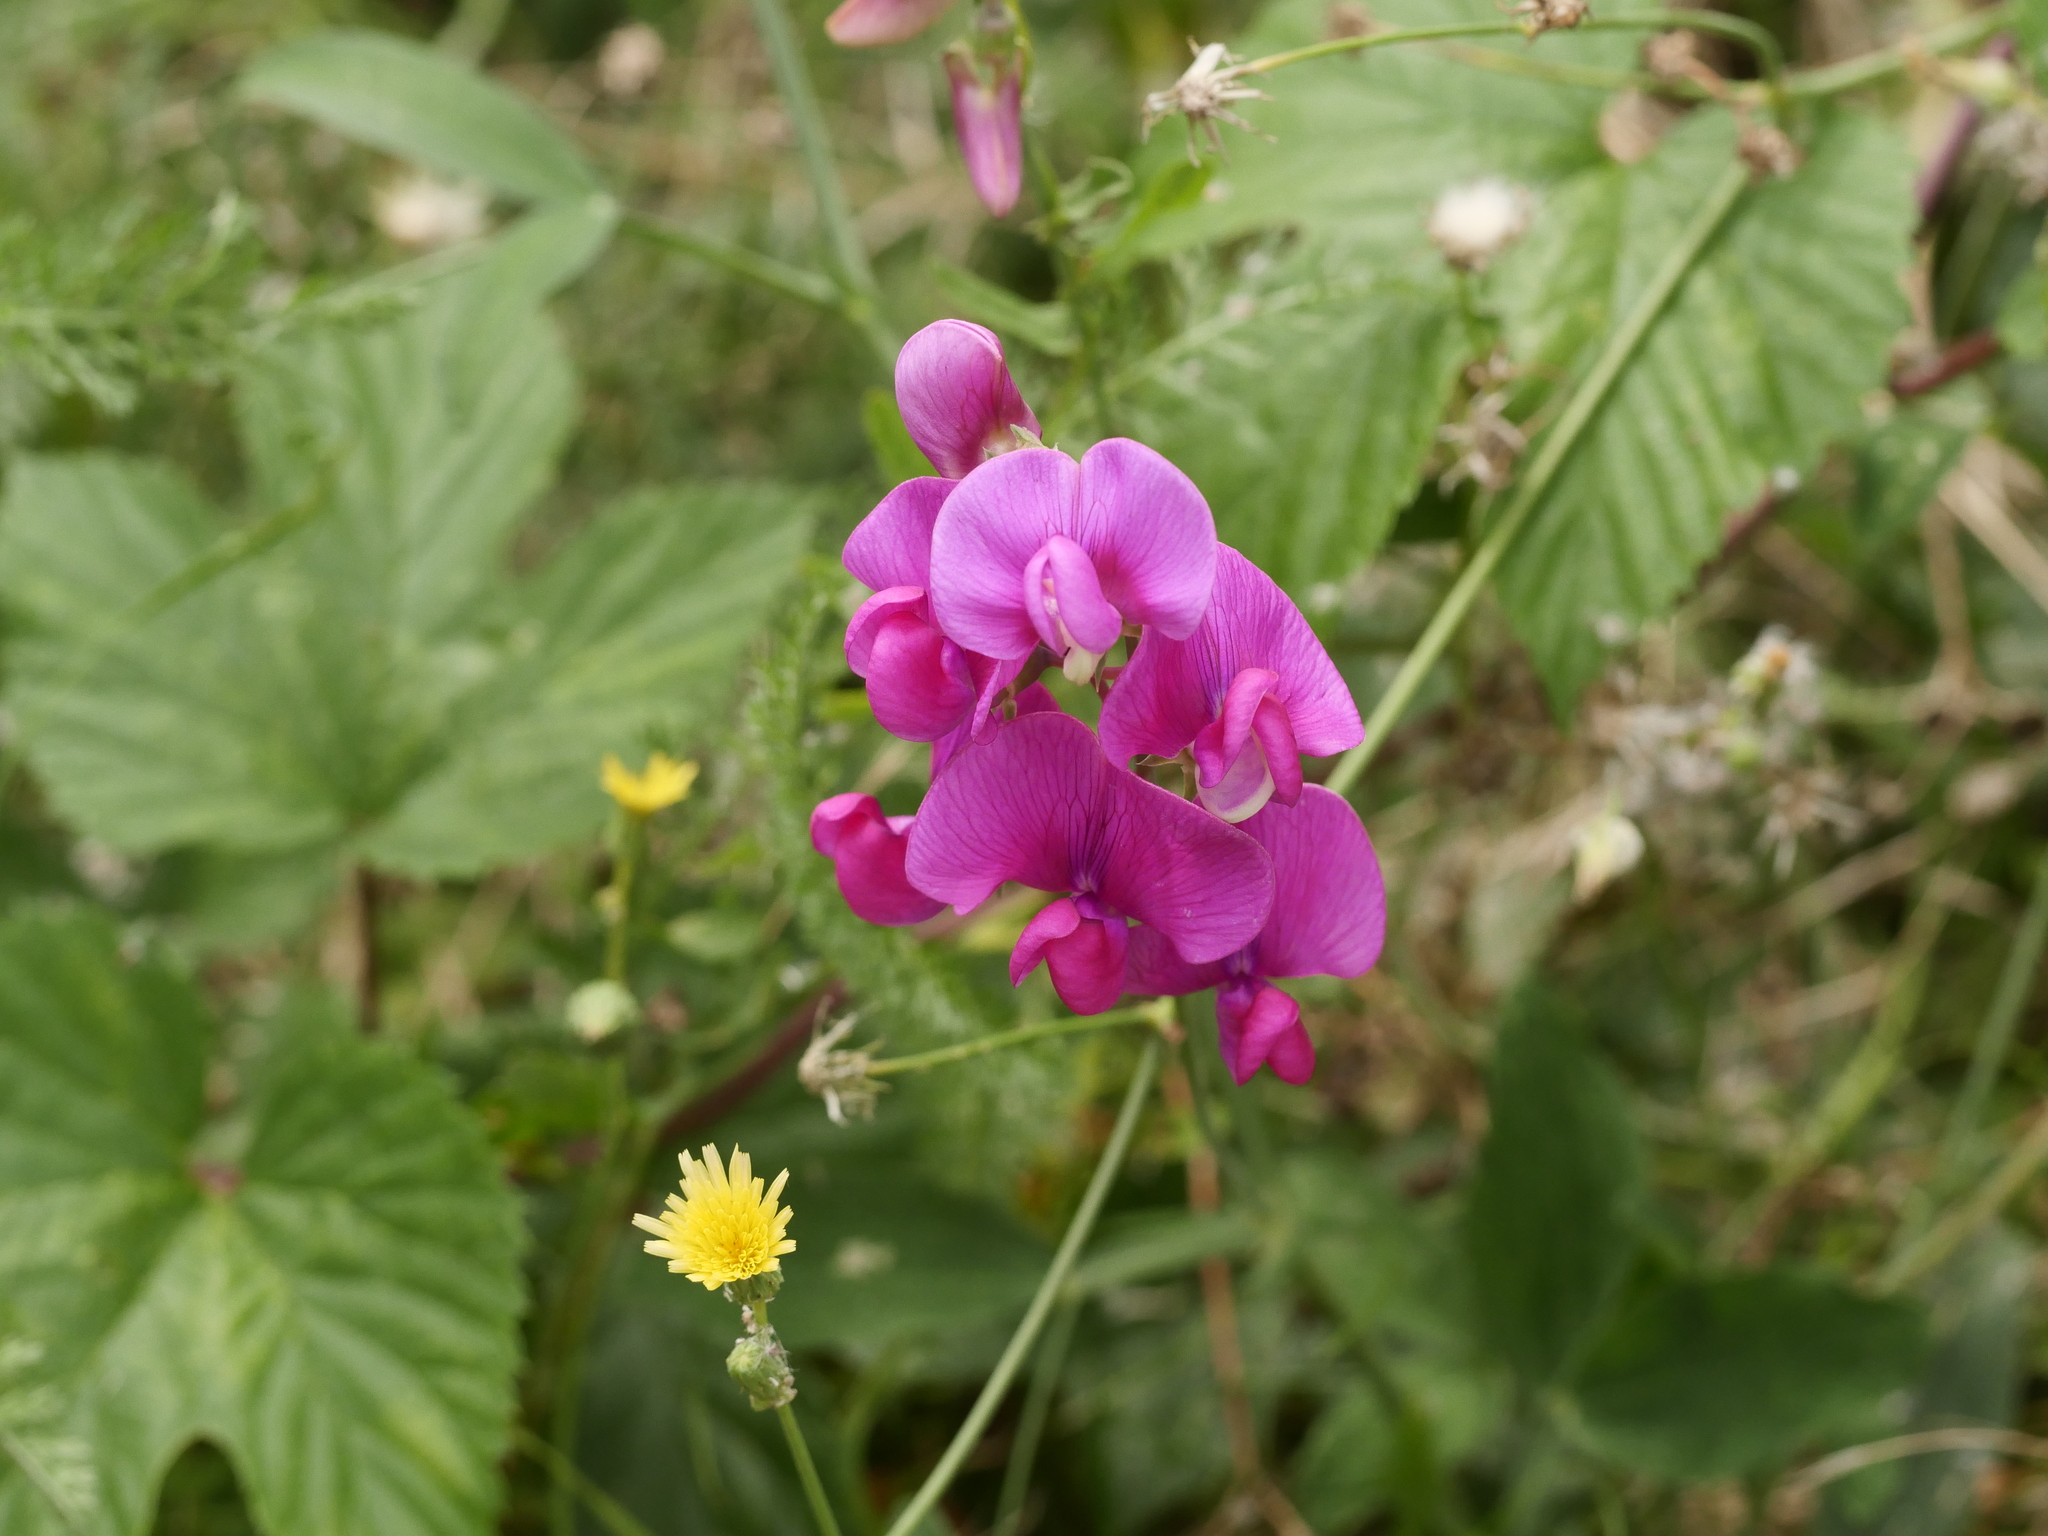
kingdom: Plantae
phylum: Tracheophyta
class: Magnoliopsida
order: Fabales
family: Fabaceae
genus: Lathyrus
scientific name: Lathyrus latifolius
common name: Perennial pea
